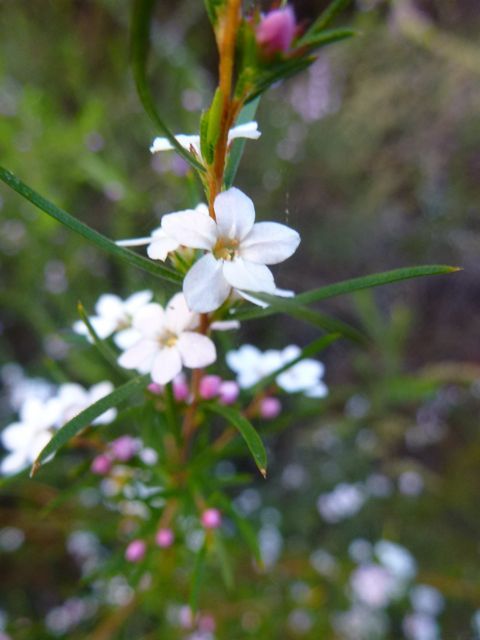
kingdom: Plantae
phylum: Tracheophyta
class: Magnoliopsida
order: Sapindales
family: Rutaceae
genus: Coleonema
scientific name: Coleonema virgatum
